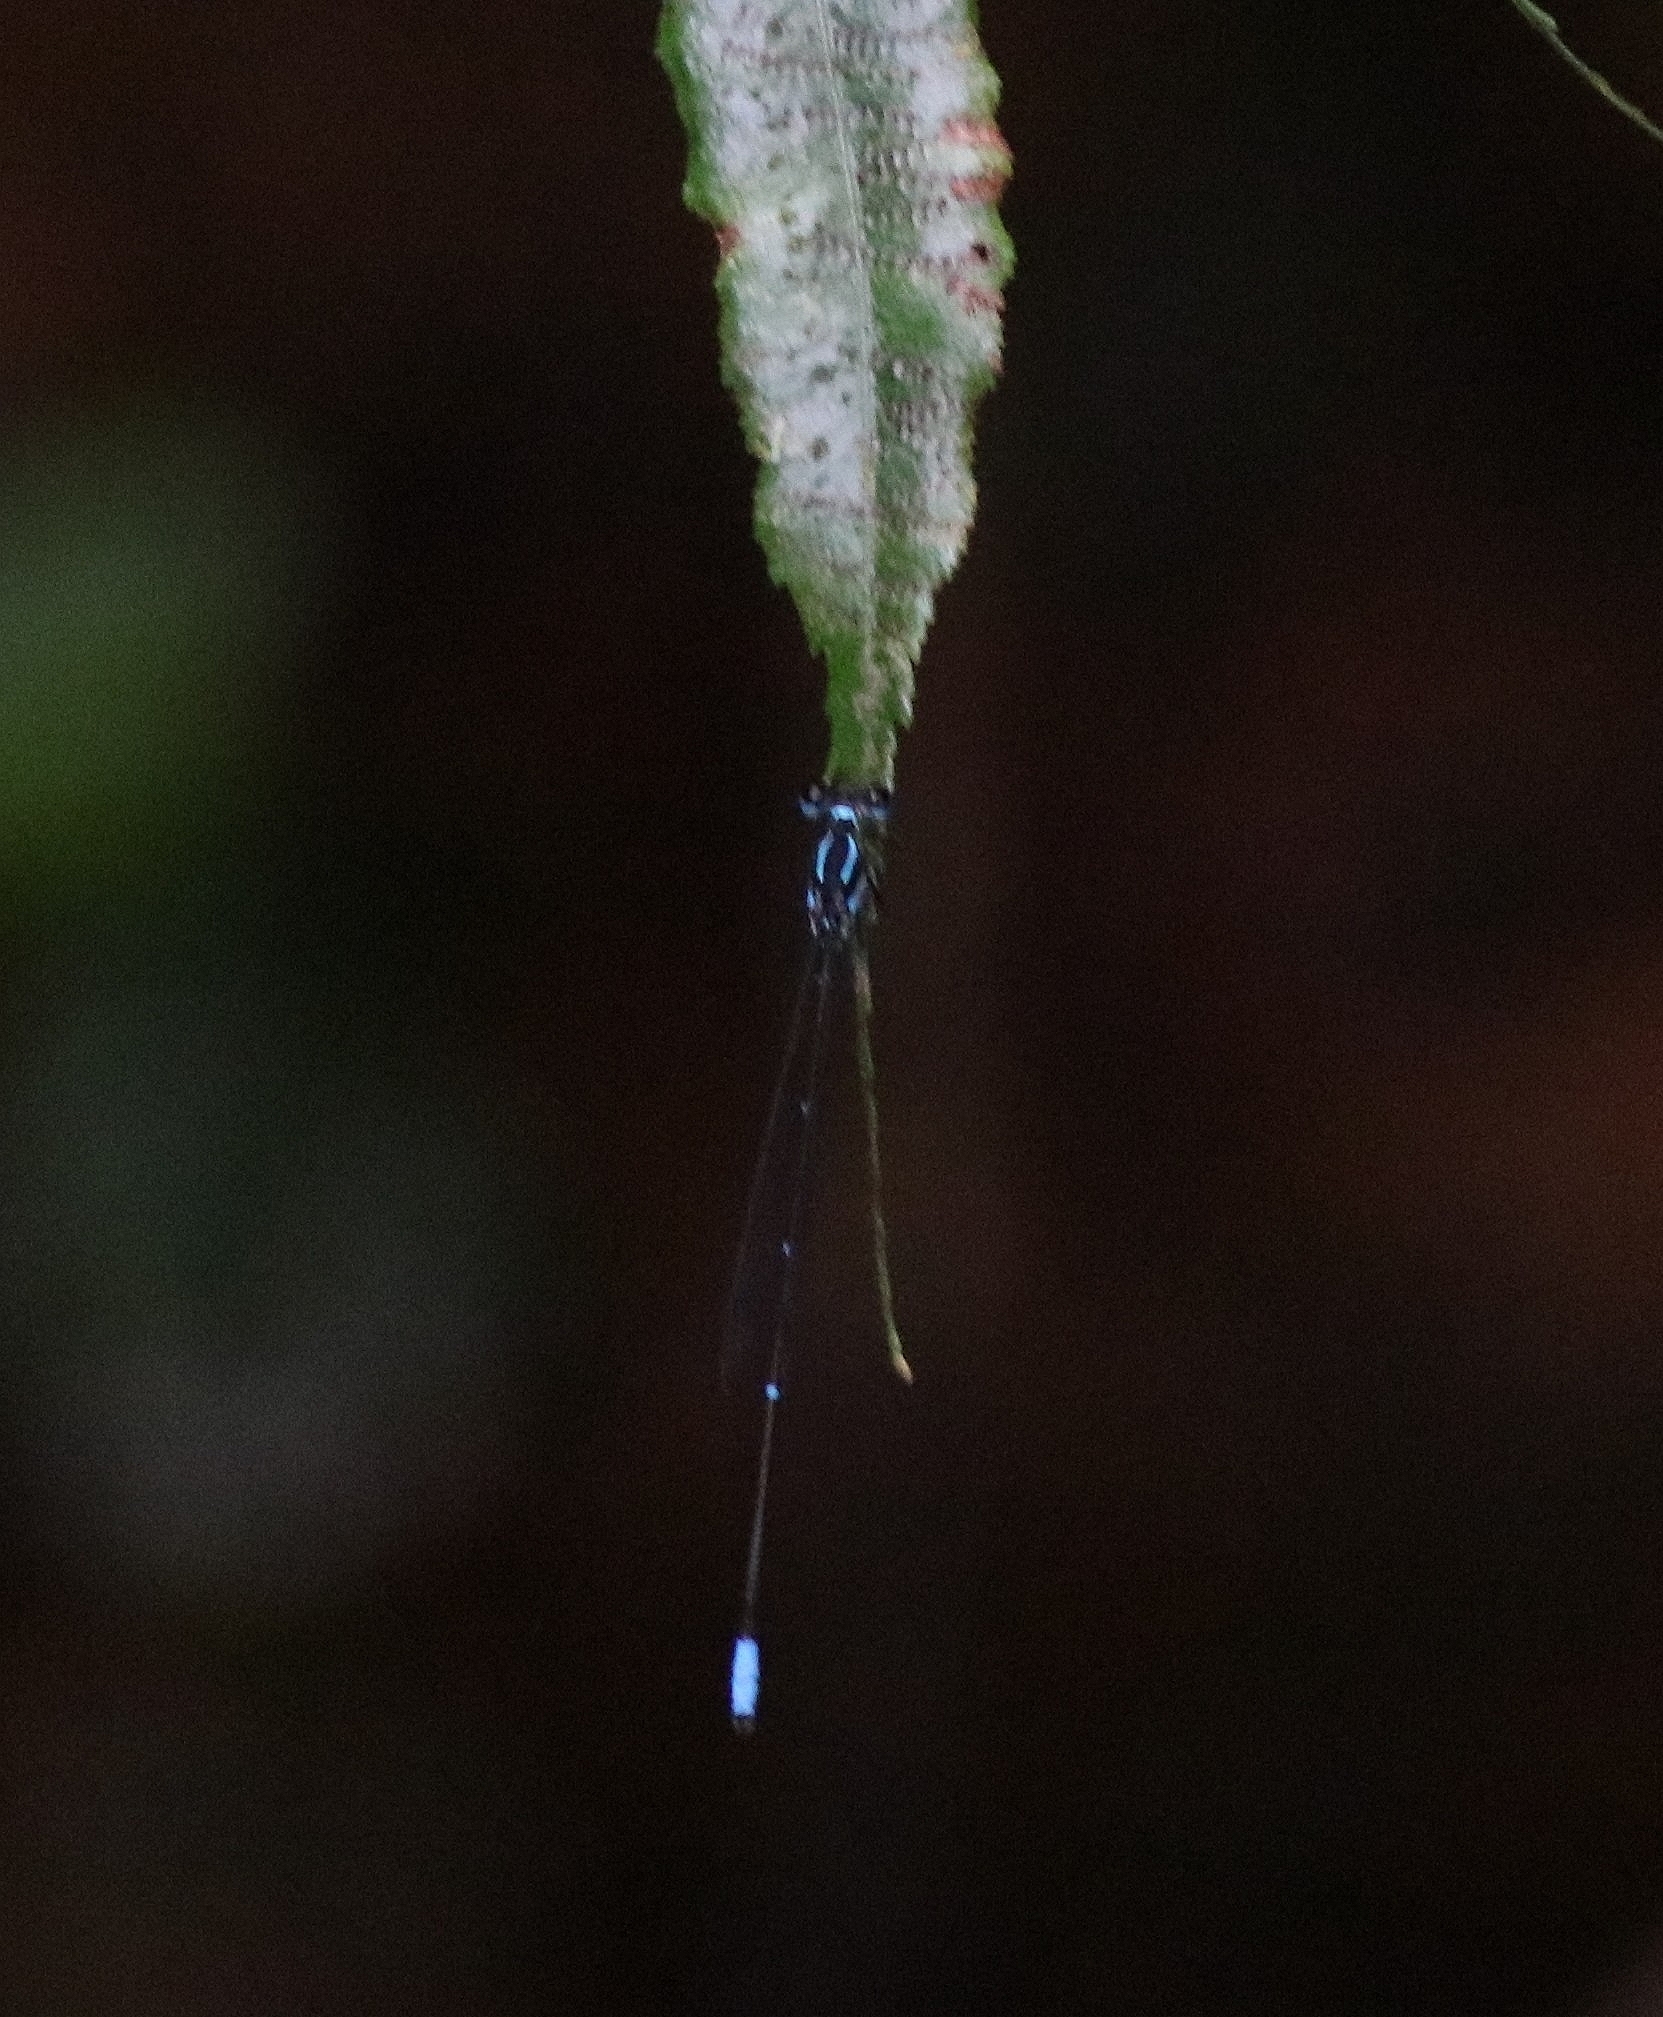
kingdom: Animalia
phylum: Arthropoda
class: Insecta
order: Odonata
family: Platycnemididae
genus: Caconeura
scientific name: Caconeura ramburi
